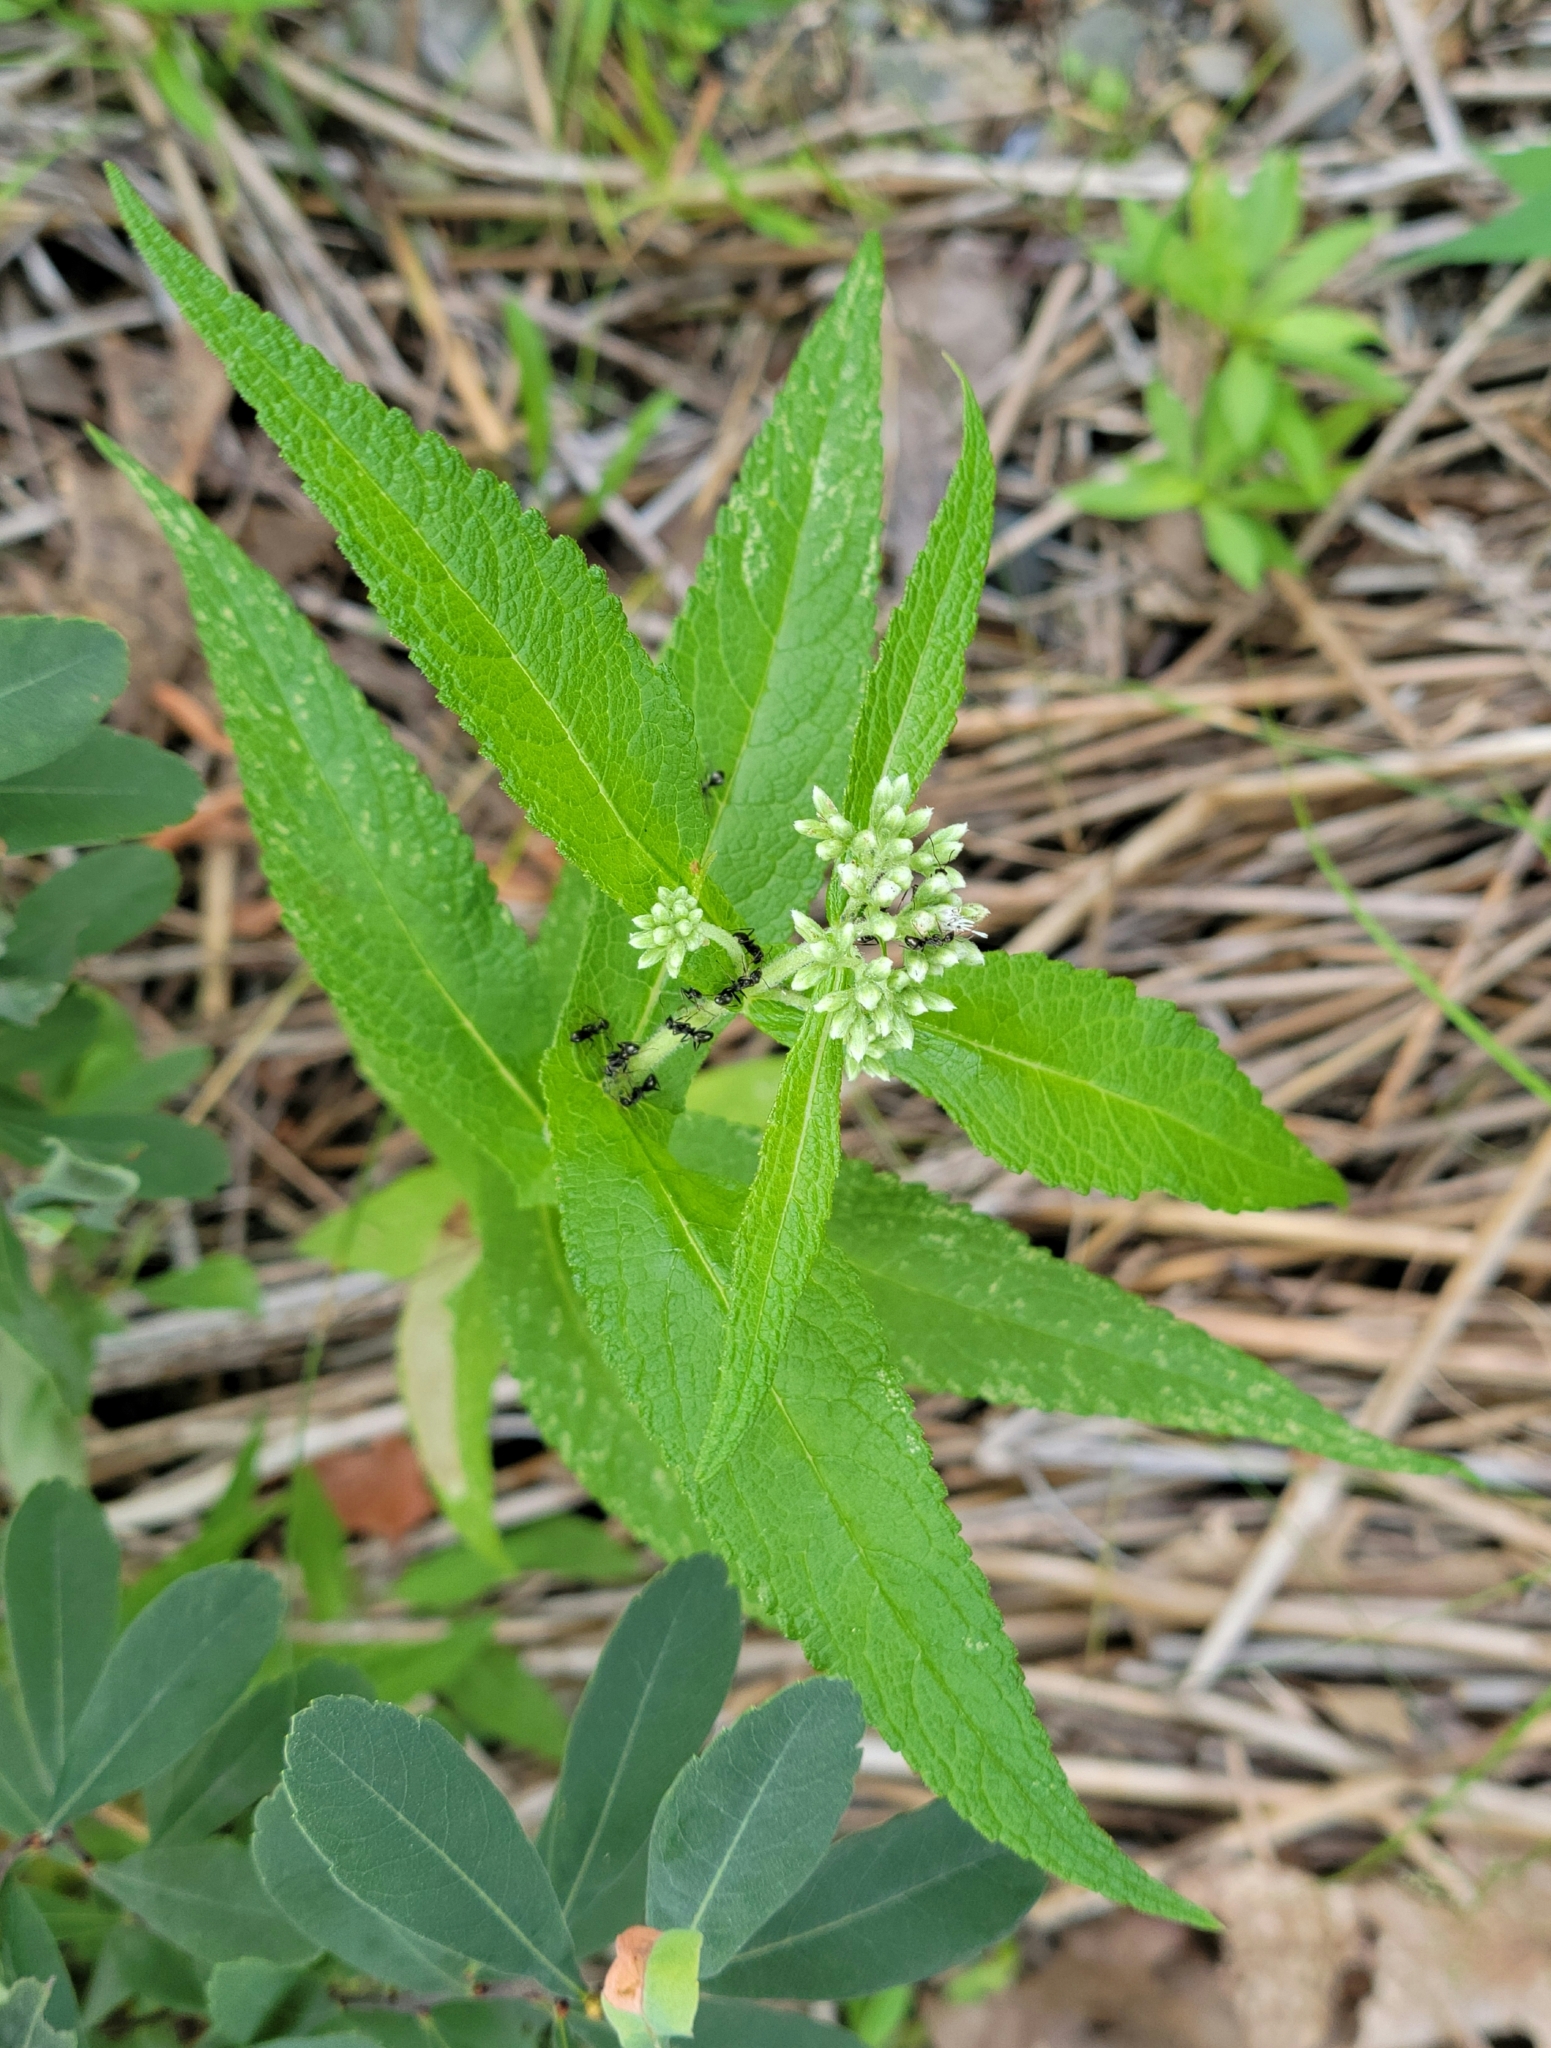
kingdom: Plantae
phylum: Tracheophyta
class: Magnoliopsida
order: Asterales
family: Asteraceae
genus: Eupatorium
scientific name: Eupatorium perfoliatum
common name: Boneset
